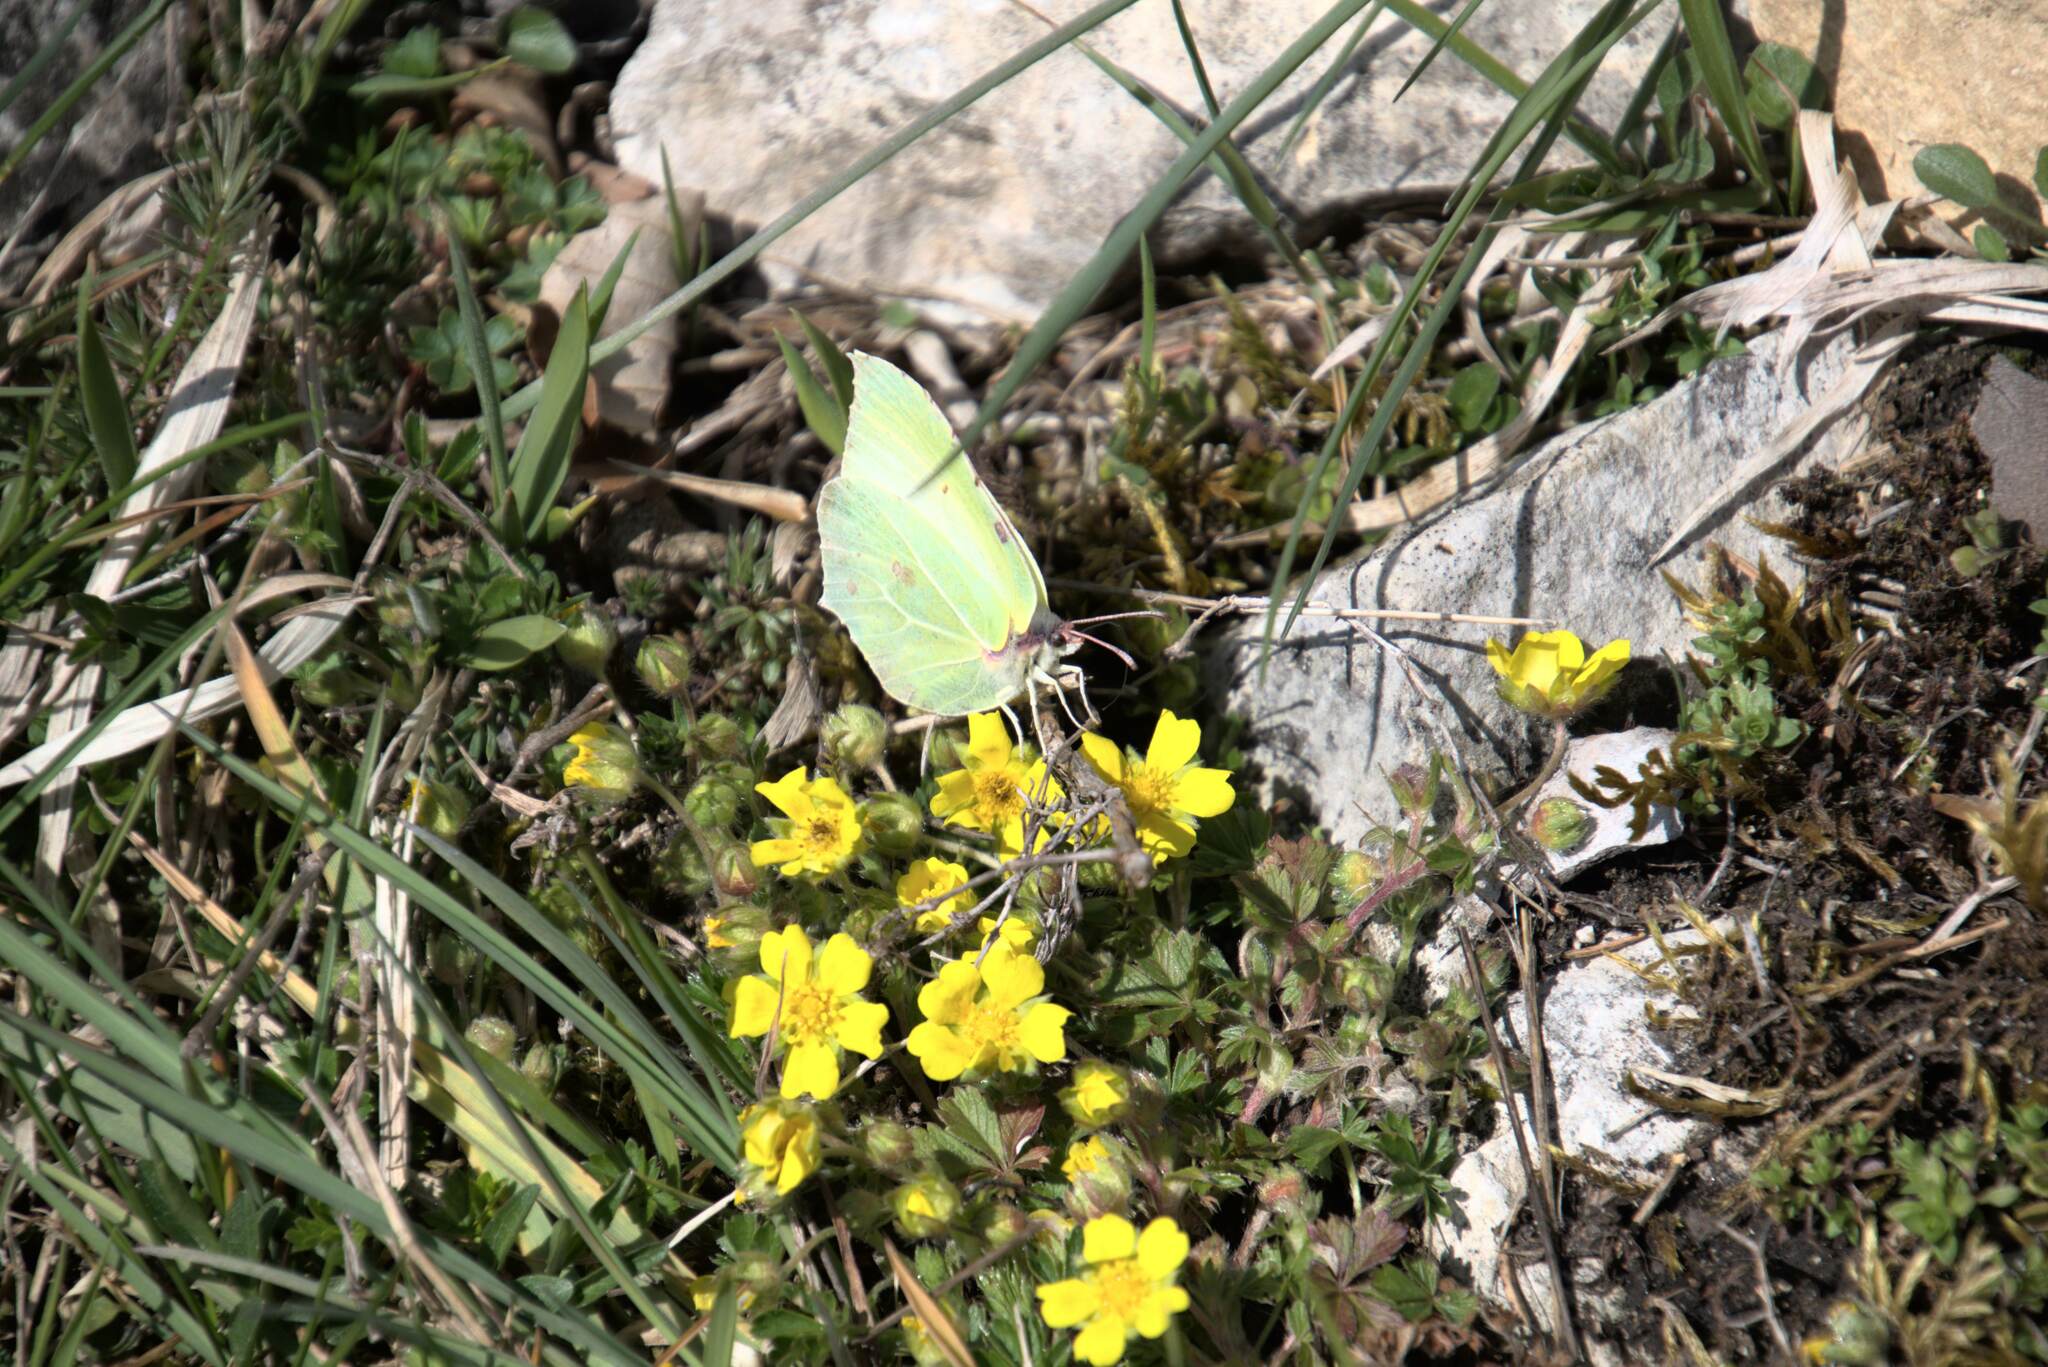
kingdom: Animalia
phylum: Arthropoda
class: Insecta
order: Lepidoptera
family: Pieridae
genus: Gonepteryx
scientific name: Gonepteryx rhamni
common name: Brimstone
